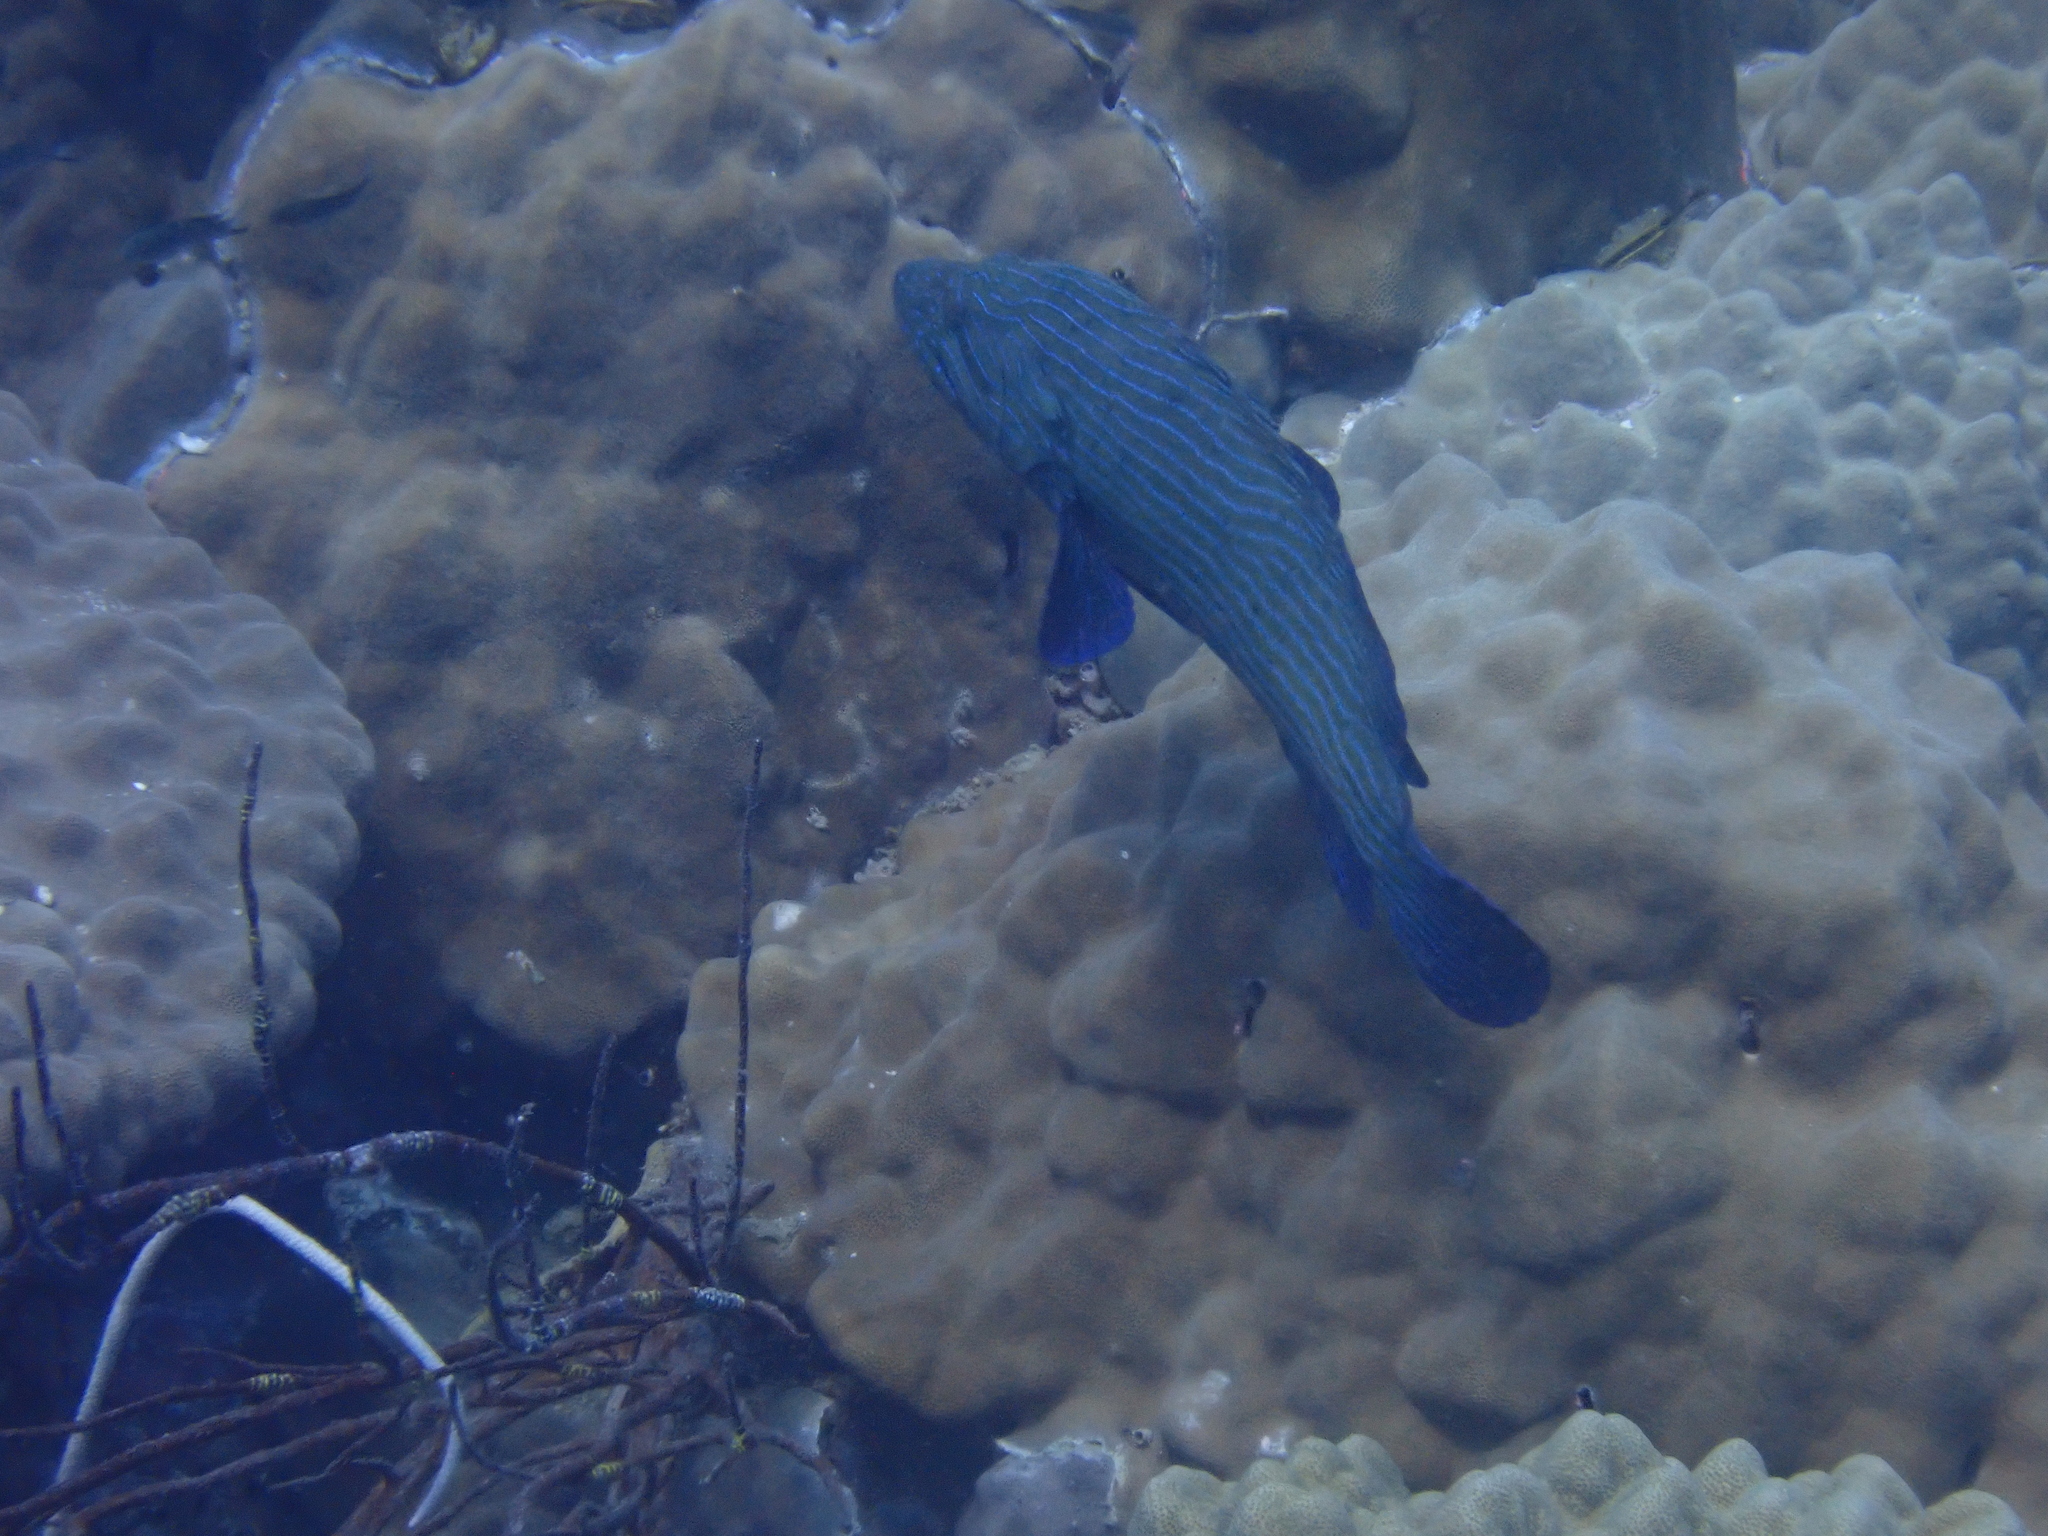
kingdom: Animalia
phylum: Chordata
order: Perciformes
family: Serranidae
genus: Cephalopholis
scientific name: Cephalopholis formosa
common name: Bluelined hind
